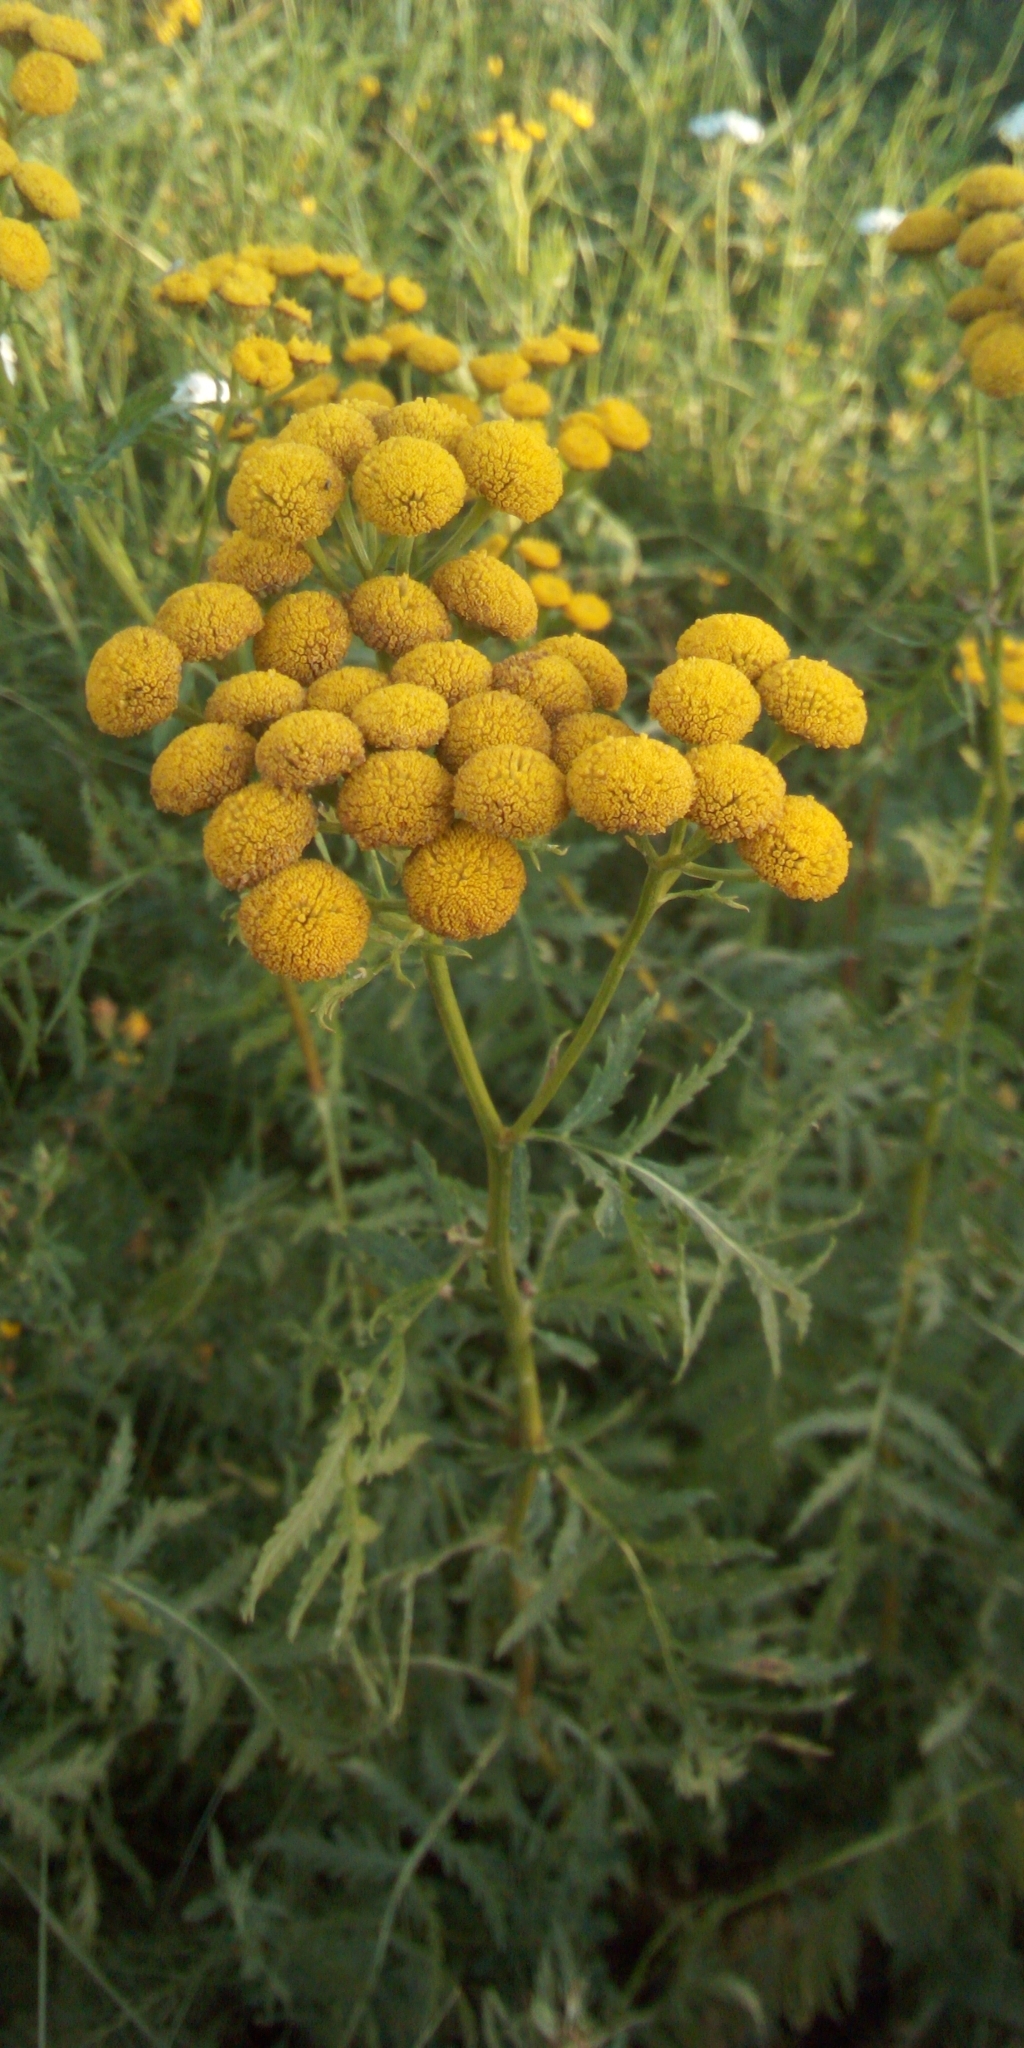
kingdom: Plantae
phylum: Tracheophyta
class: Magnoliopsida
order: Asterales
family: Asteraceae
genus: Tanacetum
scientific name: Tanacetum vulgare
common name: Common tansy
